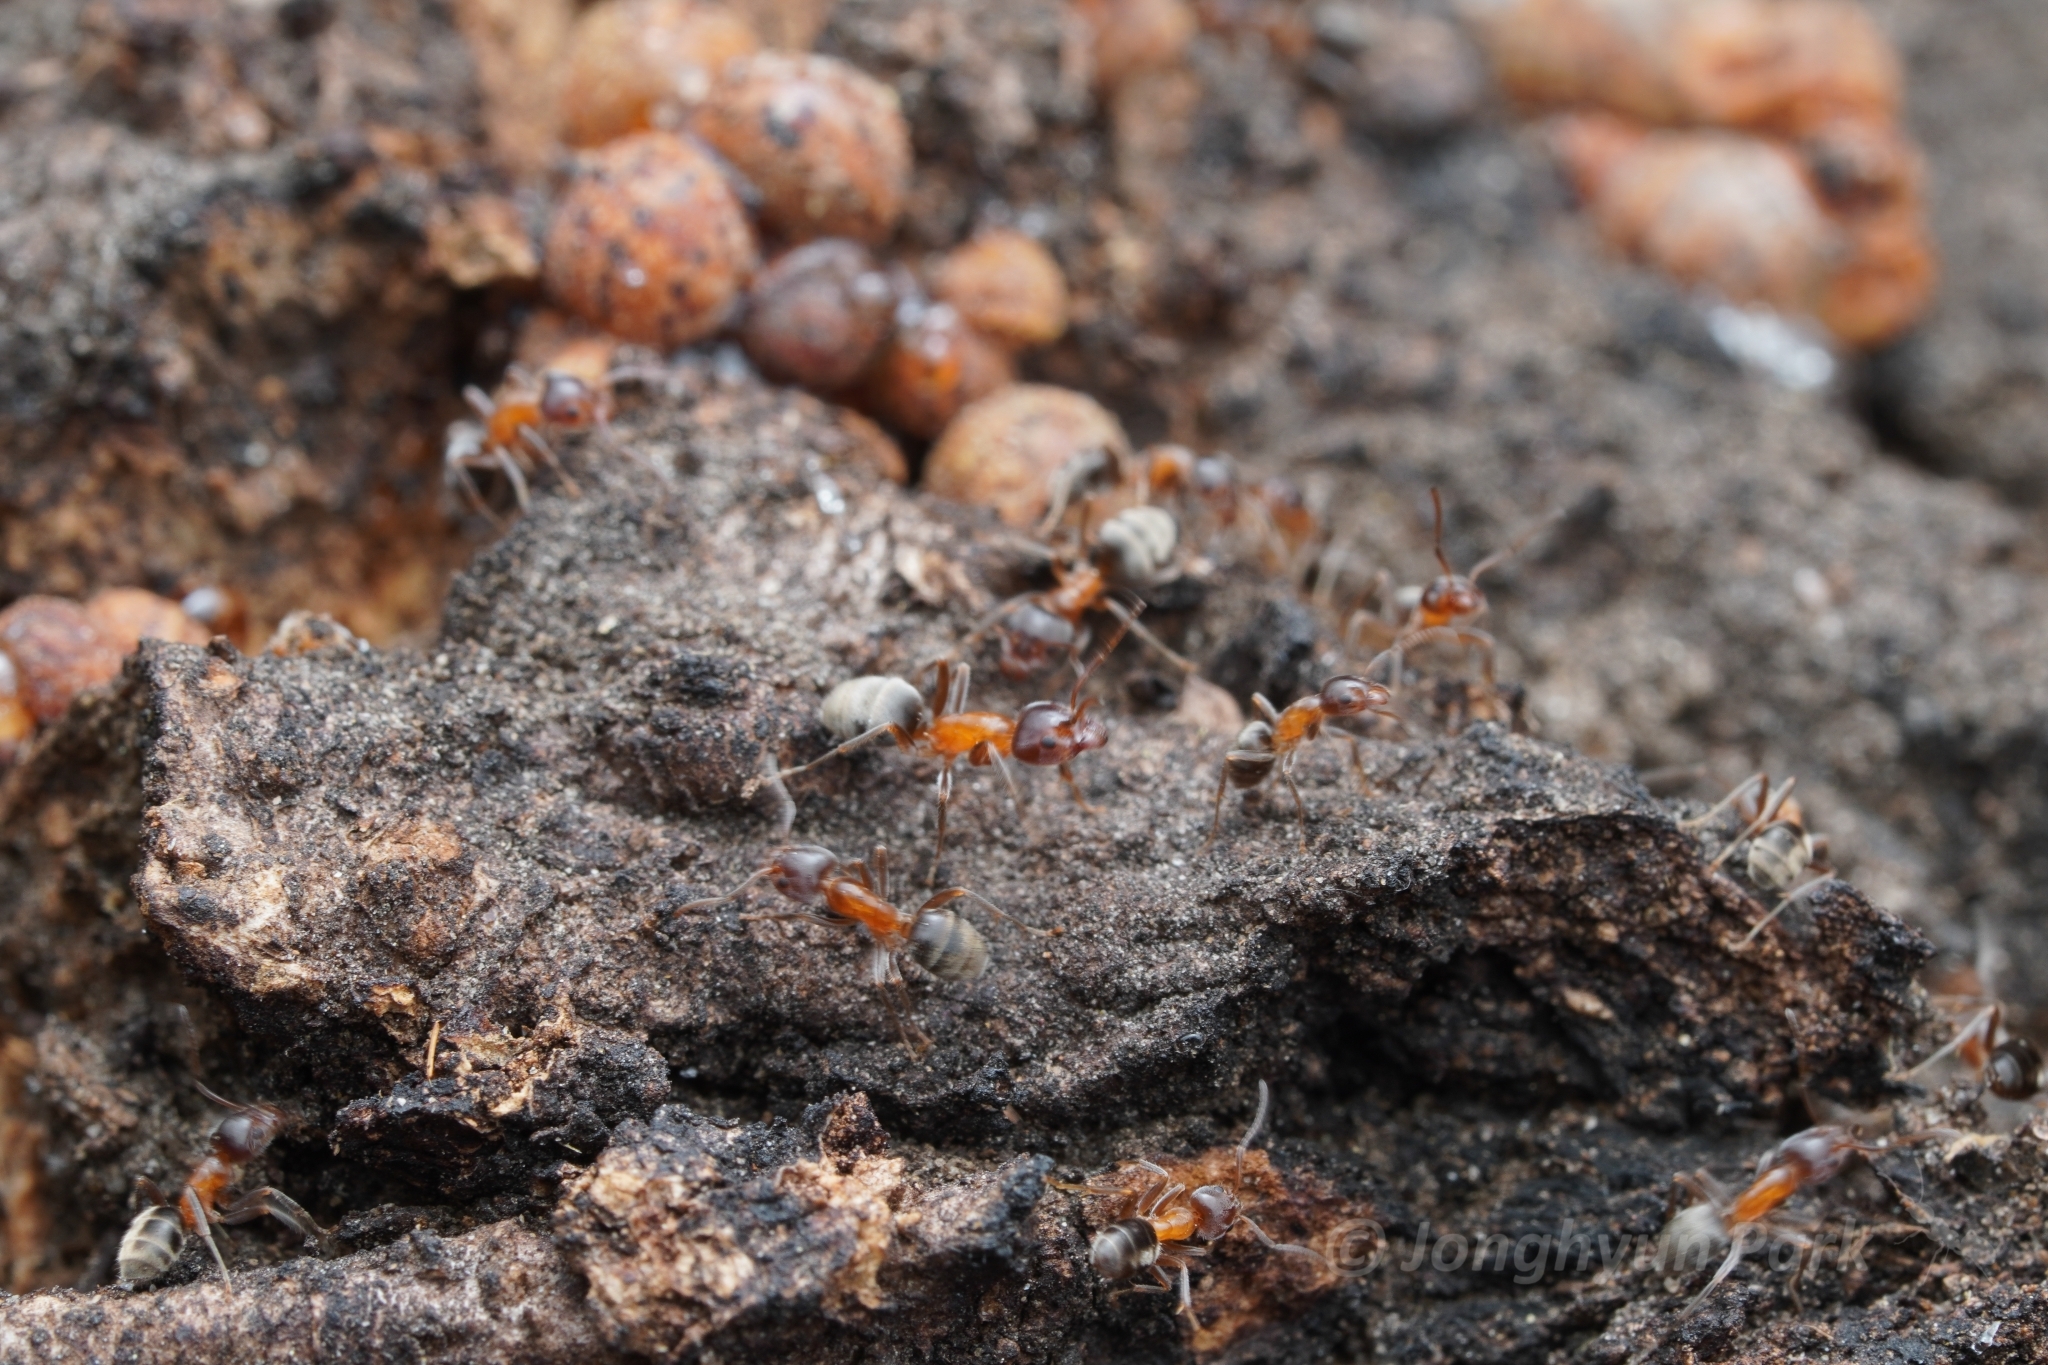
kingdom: Animalia
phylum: Arthropoda
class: Insecta
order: Hymenoptera
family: Formicidae
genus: Liometopum
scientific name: Liometopum occidentale
